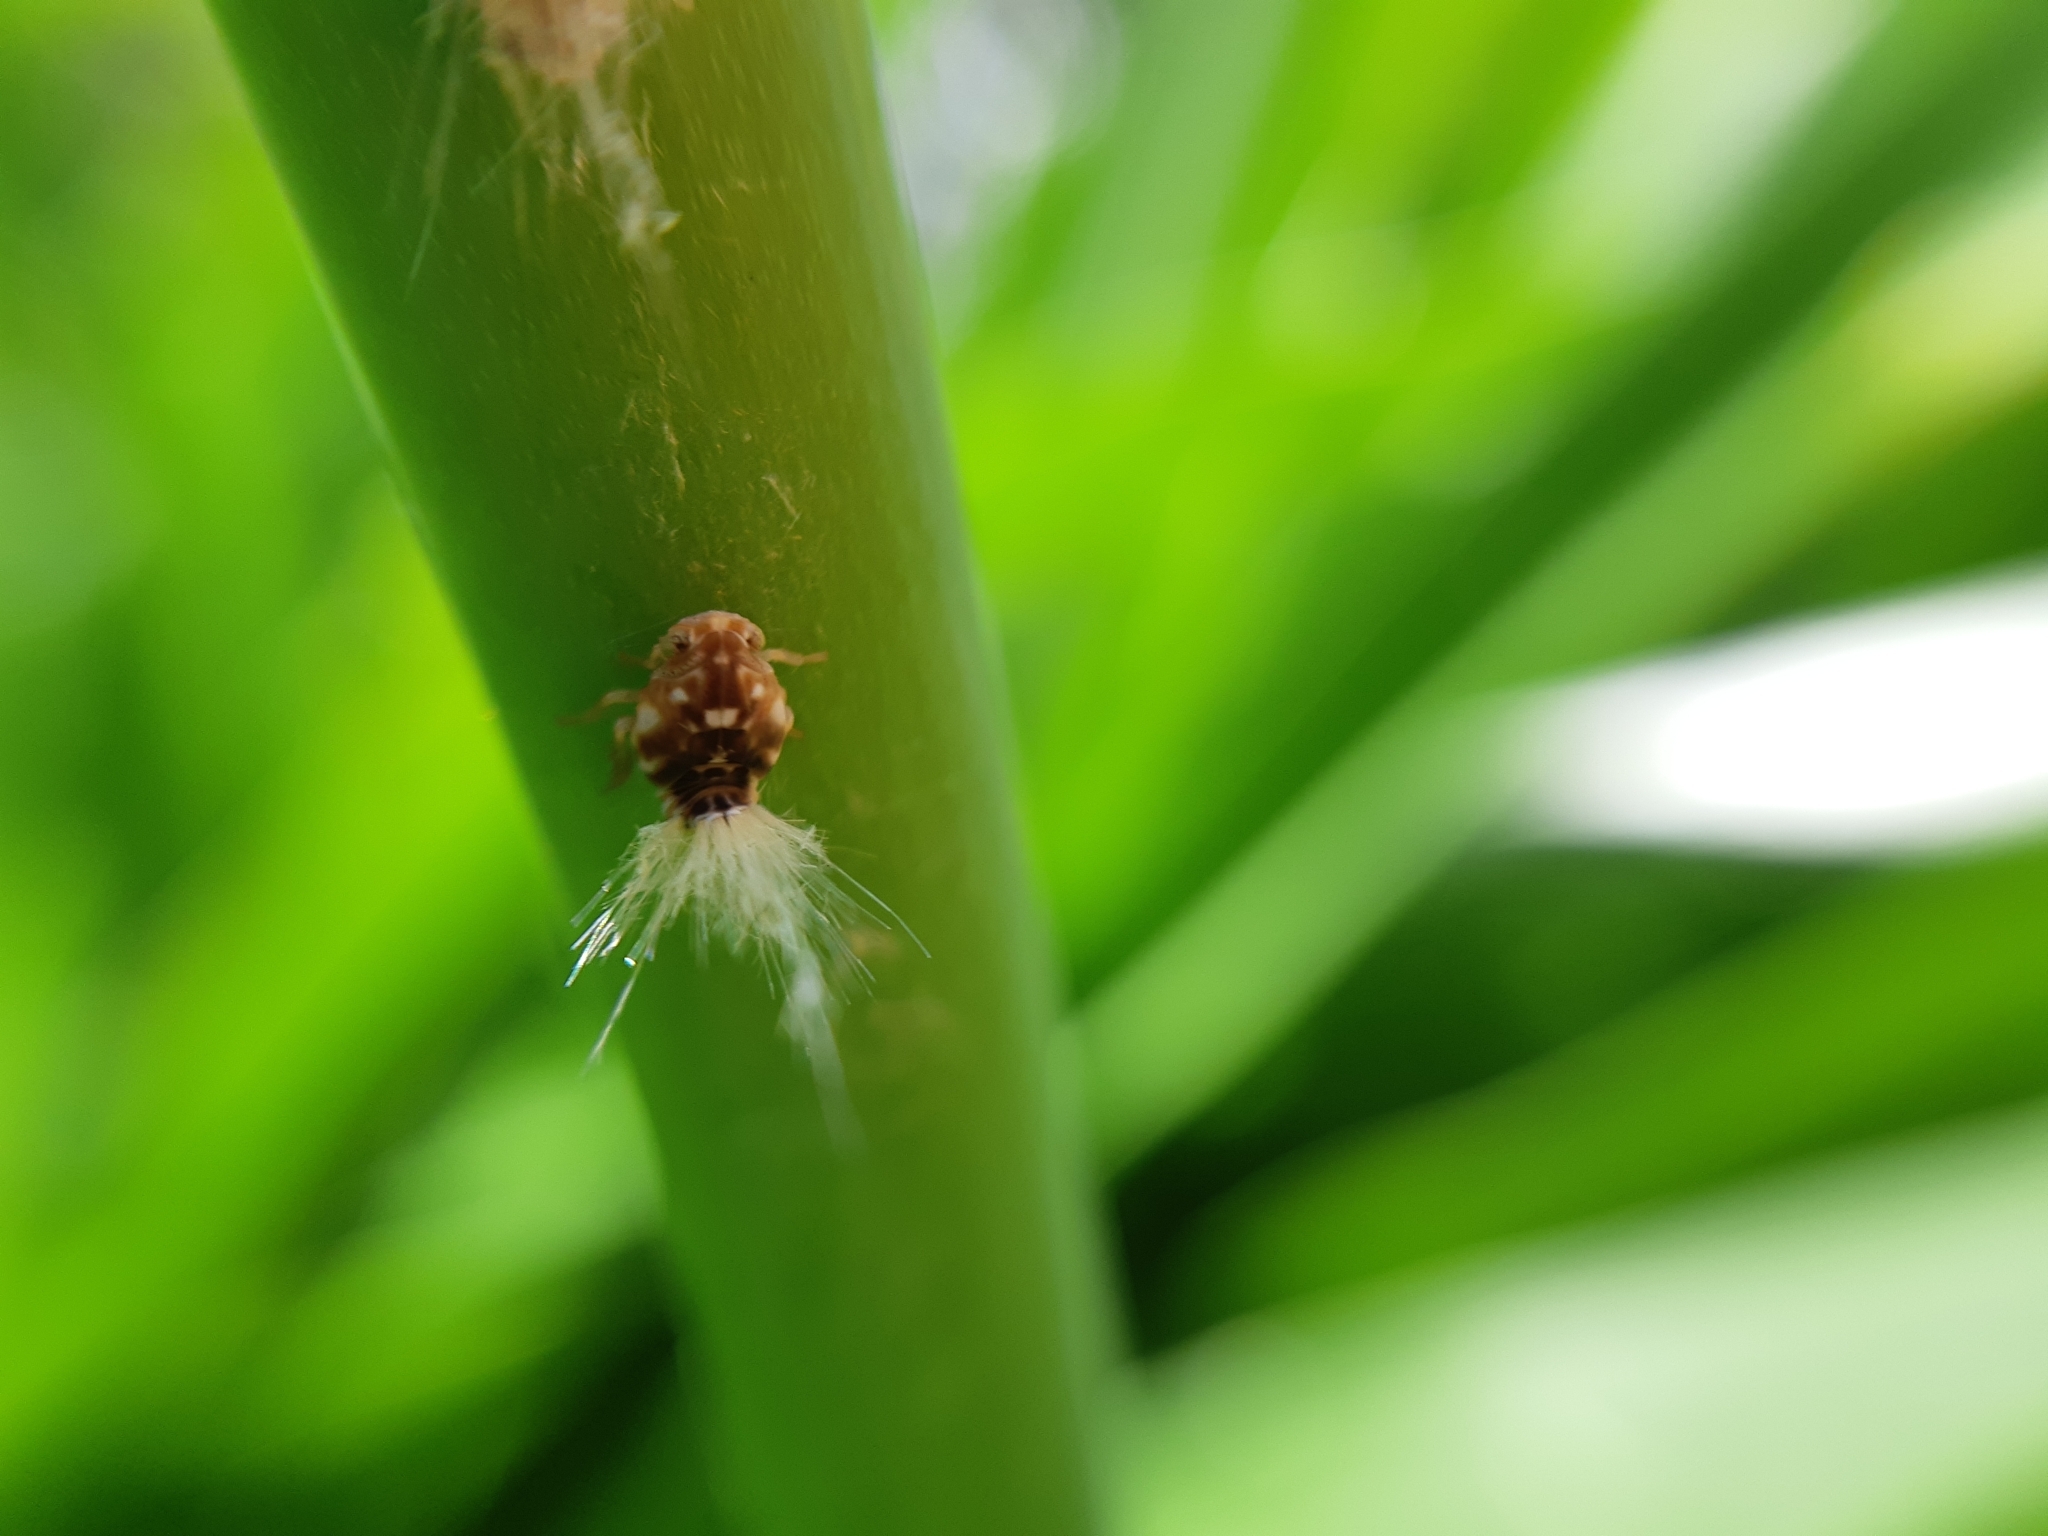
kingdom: Animalia
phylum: Arthropoda
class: Insecta
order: Hemiptera
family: Ricaniidae
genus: Scolypopa
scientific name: Scolypopa australis
